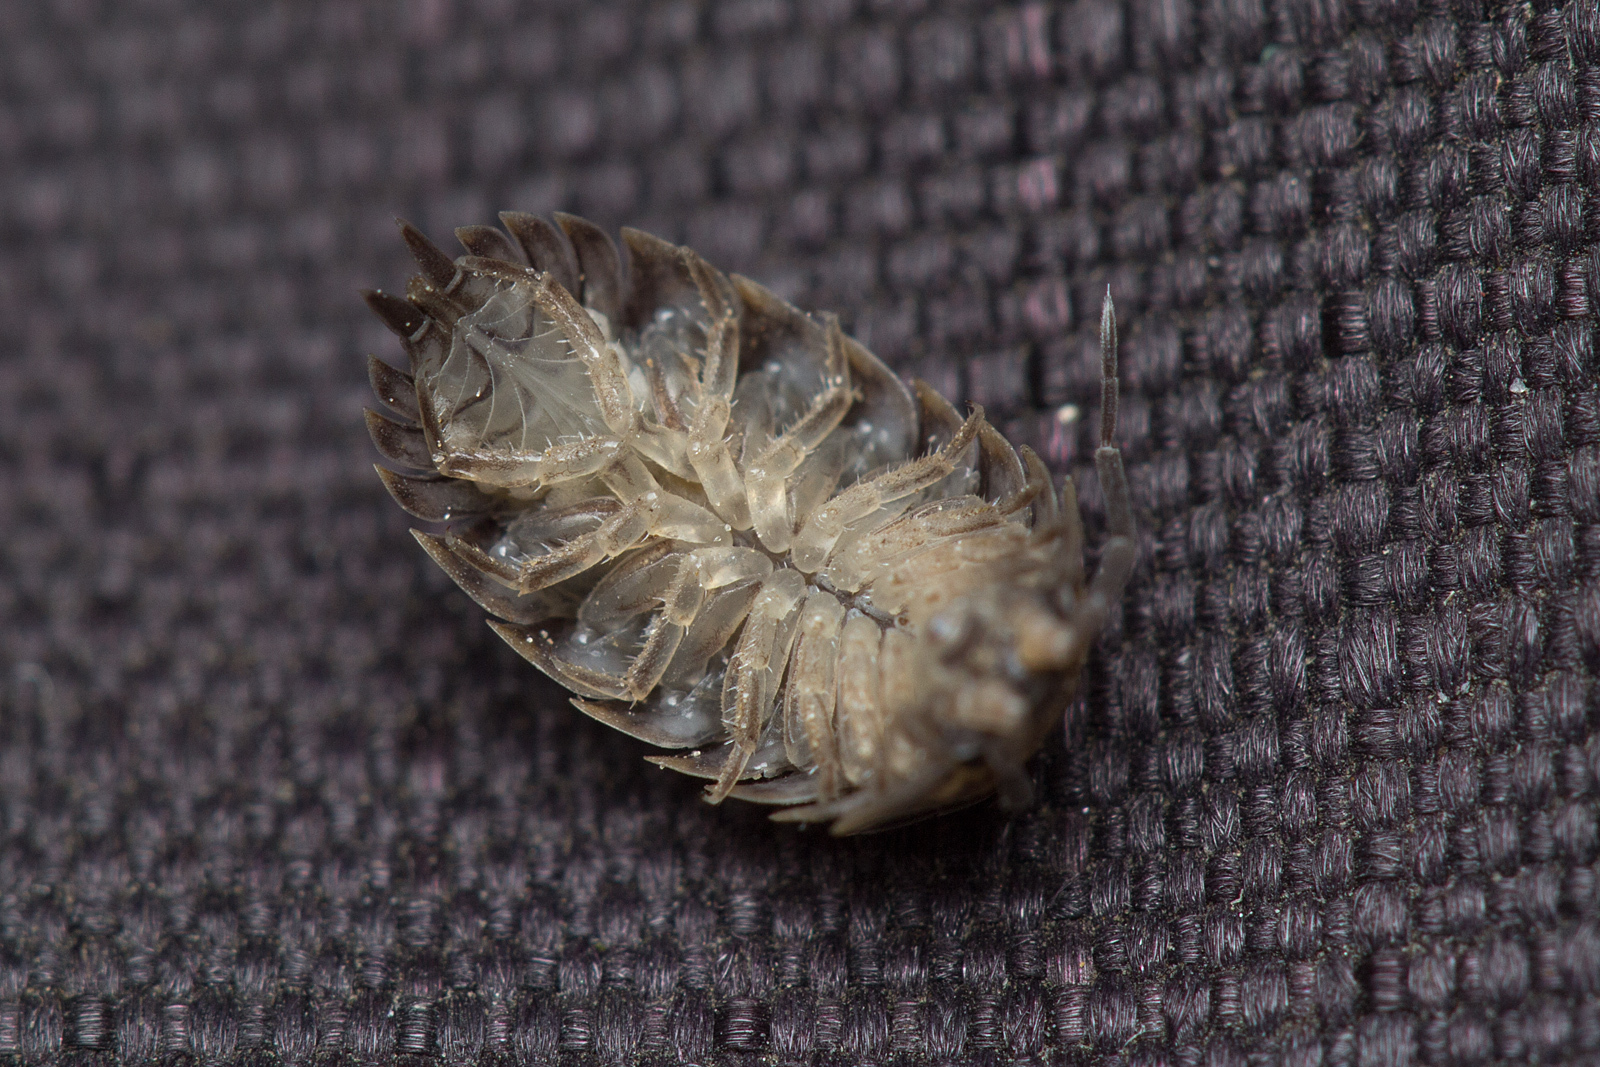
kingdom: Animalia
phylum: Arthropoda
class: Malacostraca
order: Isopoda
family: Trachelipodidae
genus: Trachelipus
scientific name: Trachelipus rathkii
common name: Isopod
